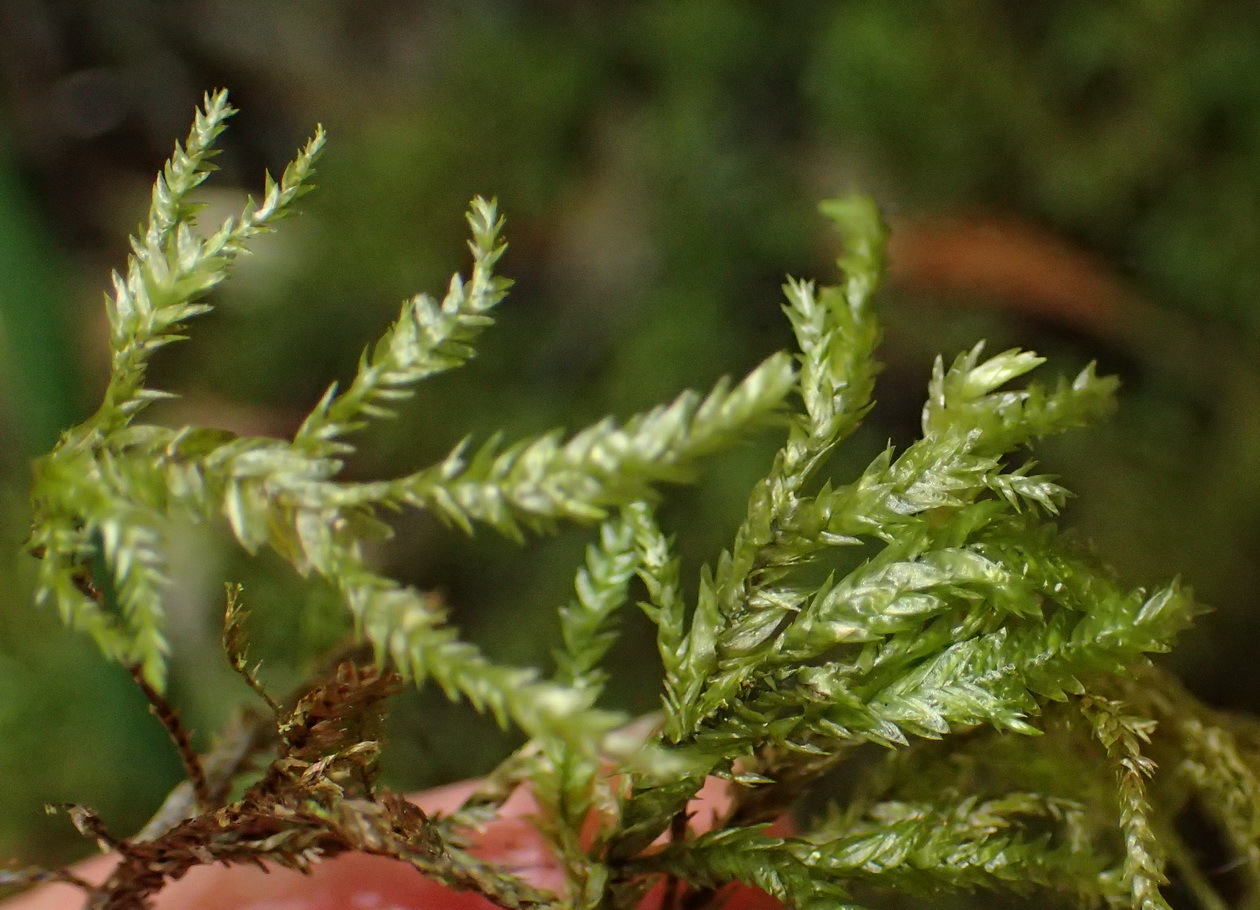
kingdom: Plantae
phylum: Bryophyta
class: Bryopsida
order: Hypnales
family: Neckeraceae
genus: Porotrichum
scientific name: Porotrichum madagassum
